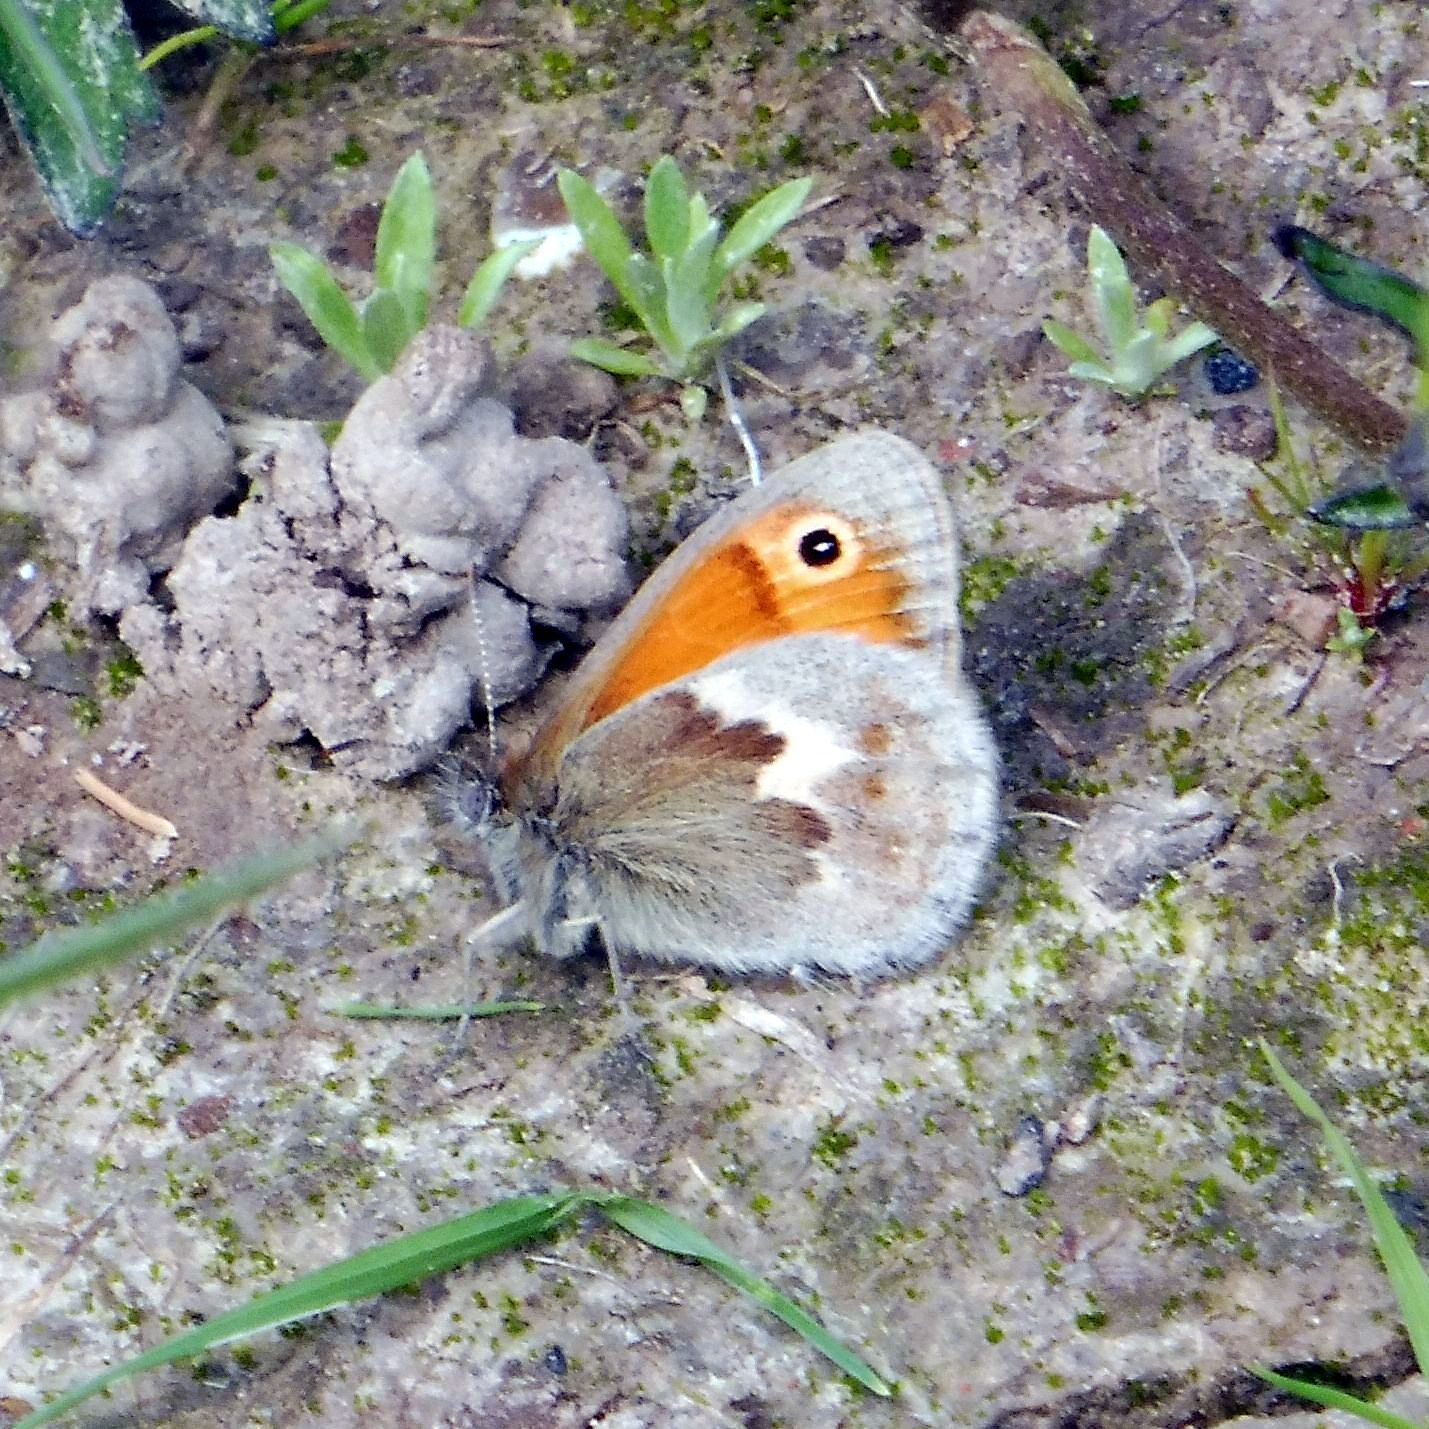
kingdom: Animalia
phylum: Arthropoda
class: Insecta
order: Lepidoptera
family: Nymphalidae
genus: Coenonympha
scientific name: Coenonympha pamphilus
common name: Small heath
